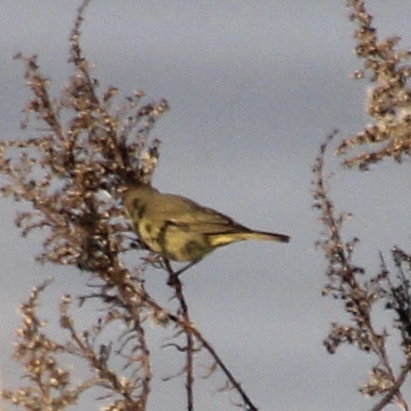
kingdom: Animalia
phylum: Chordata
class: Aves
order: Passeriformes
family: Parulidae
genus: Leiothlypis
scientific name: Leiothlypis celata
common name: Orange-crowned warbler
